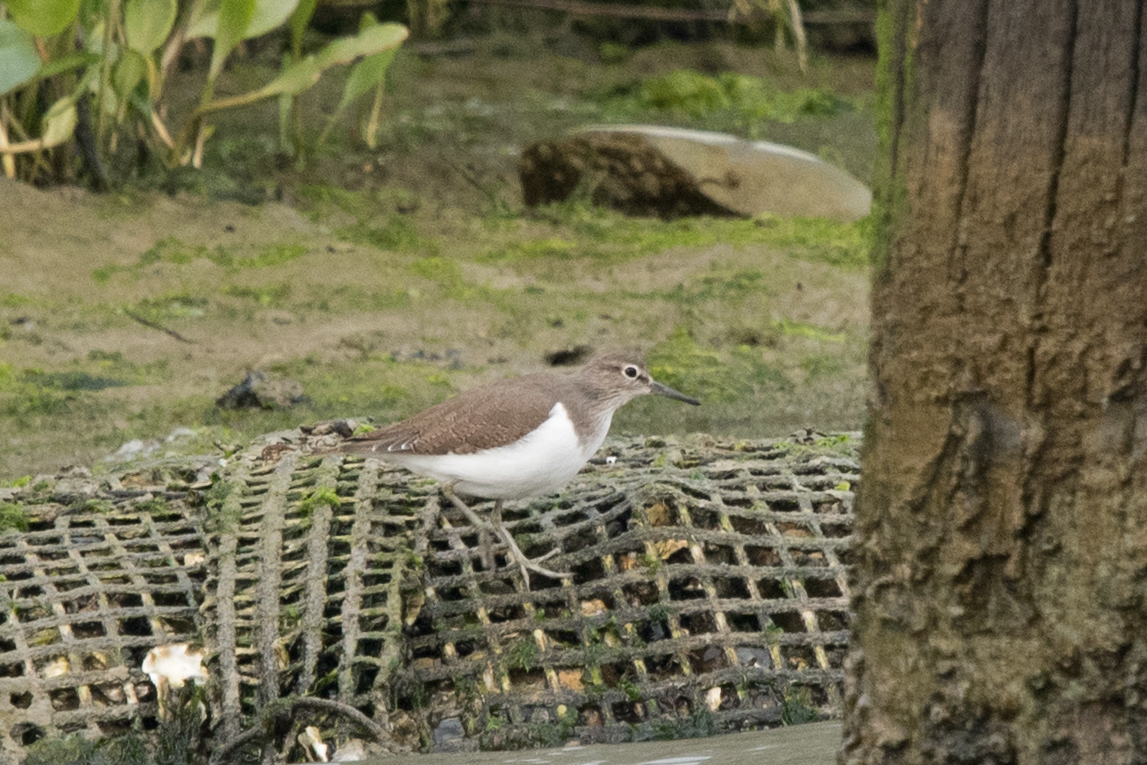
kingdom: Animalia
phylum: Chordata
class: Aves
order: Charadriiformes
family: Scolopacidae
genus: Actitis
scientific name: Actitis hypoleucos
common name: Common sandpiper
